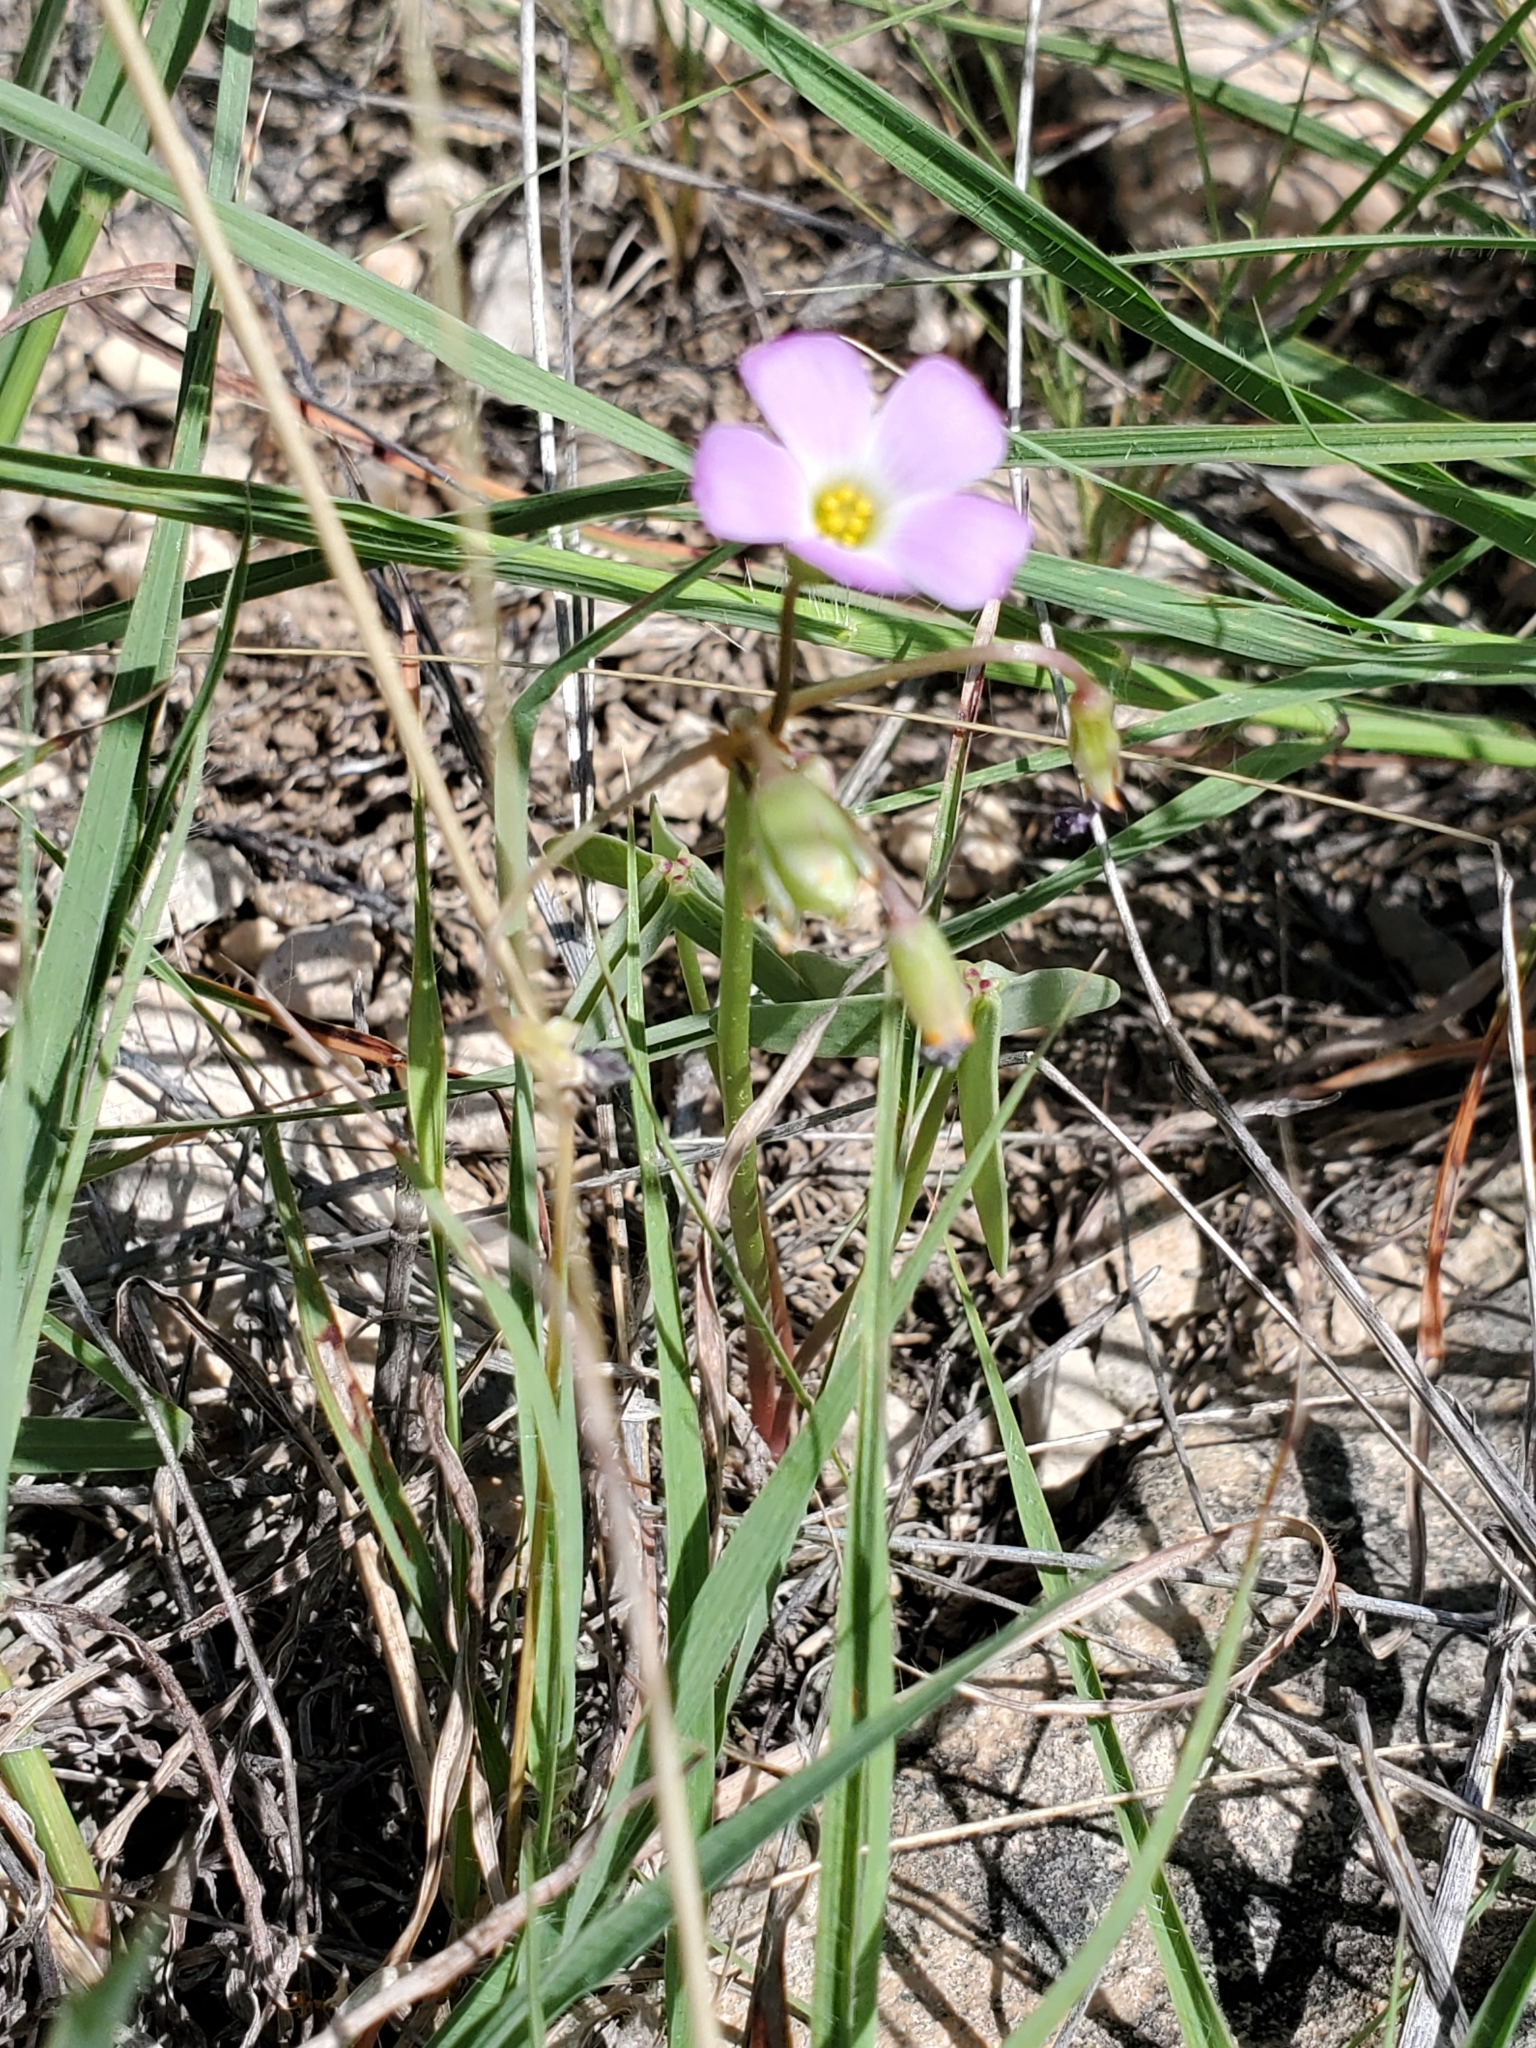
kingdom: Plantae
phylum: Tracheophyta
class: Magnoliopsida
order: Oxalidales
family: Oxalidaceae
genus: Oxalis
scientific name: Oxalis drummondii
